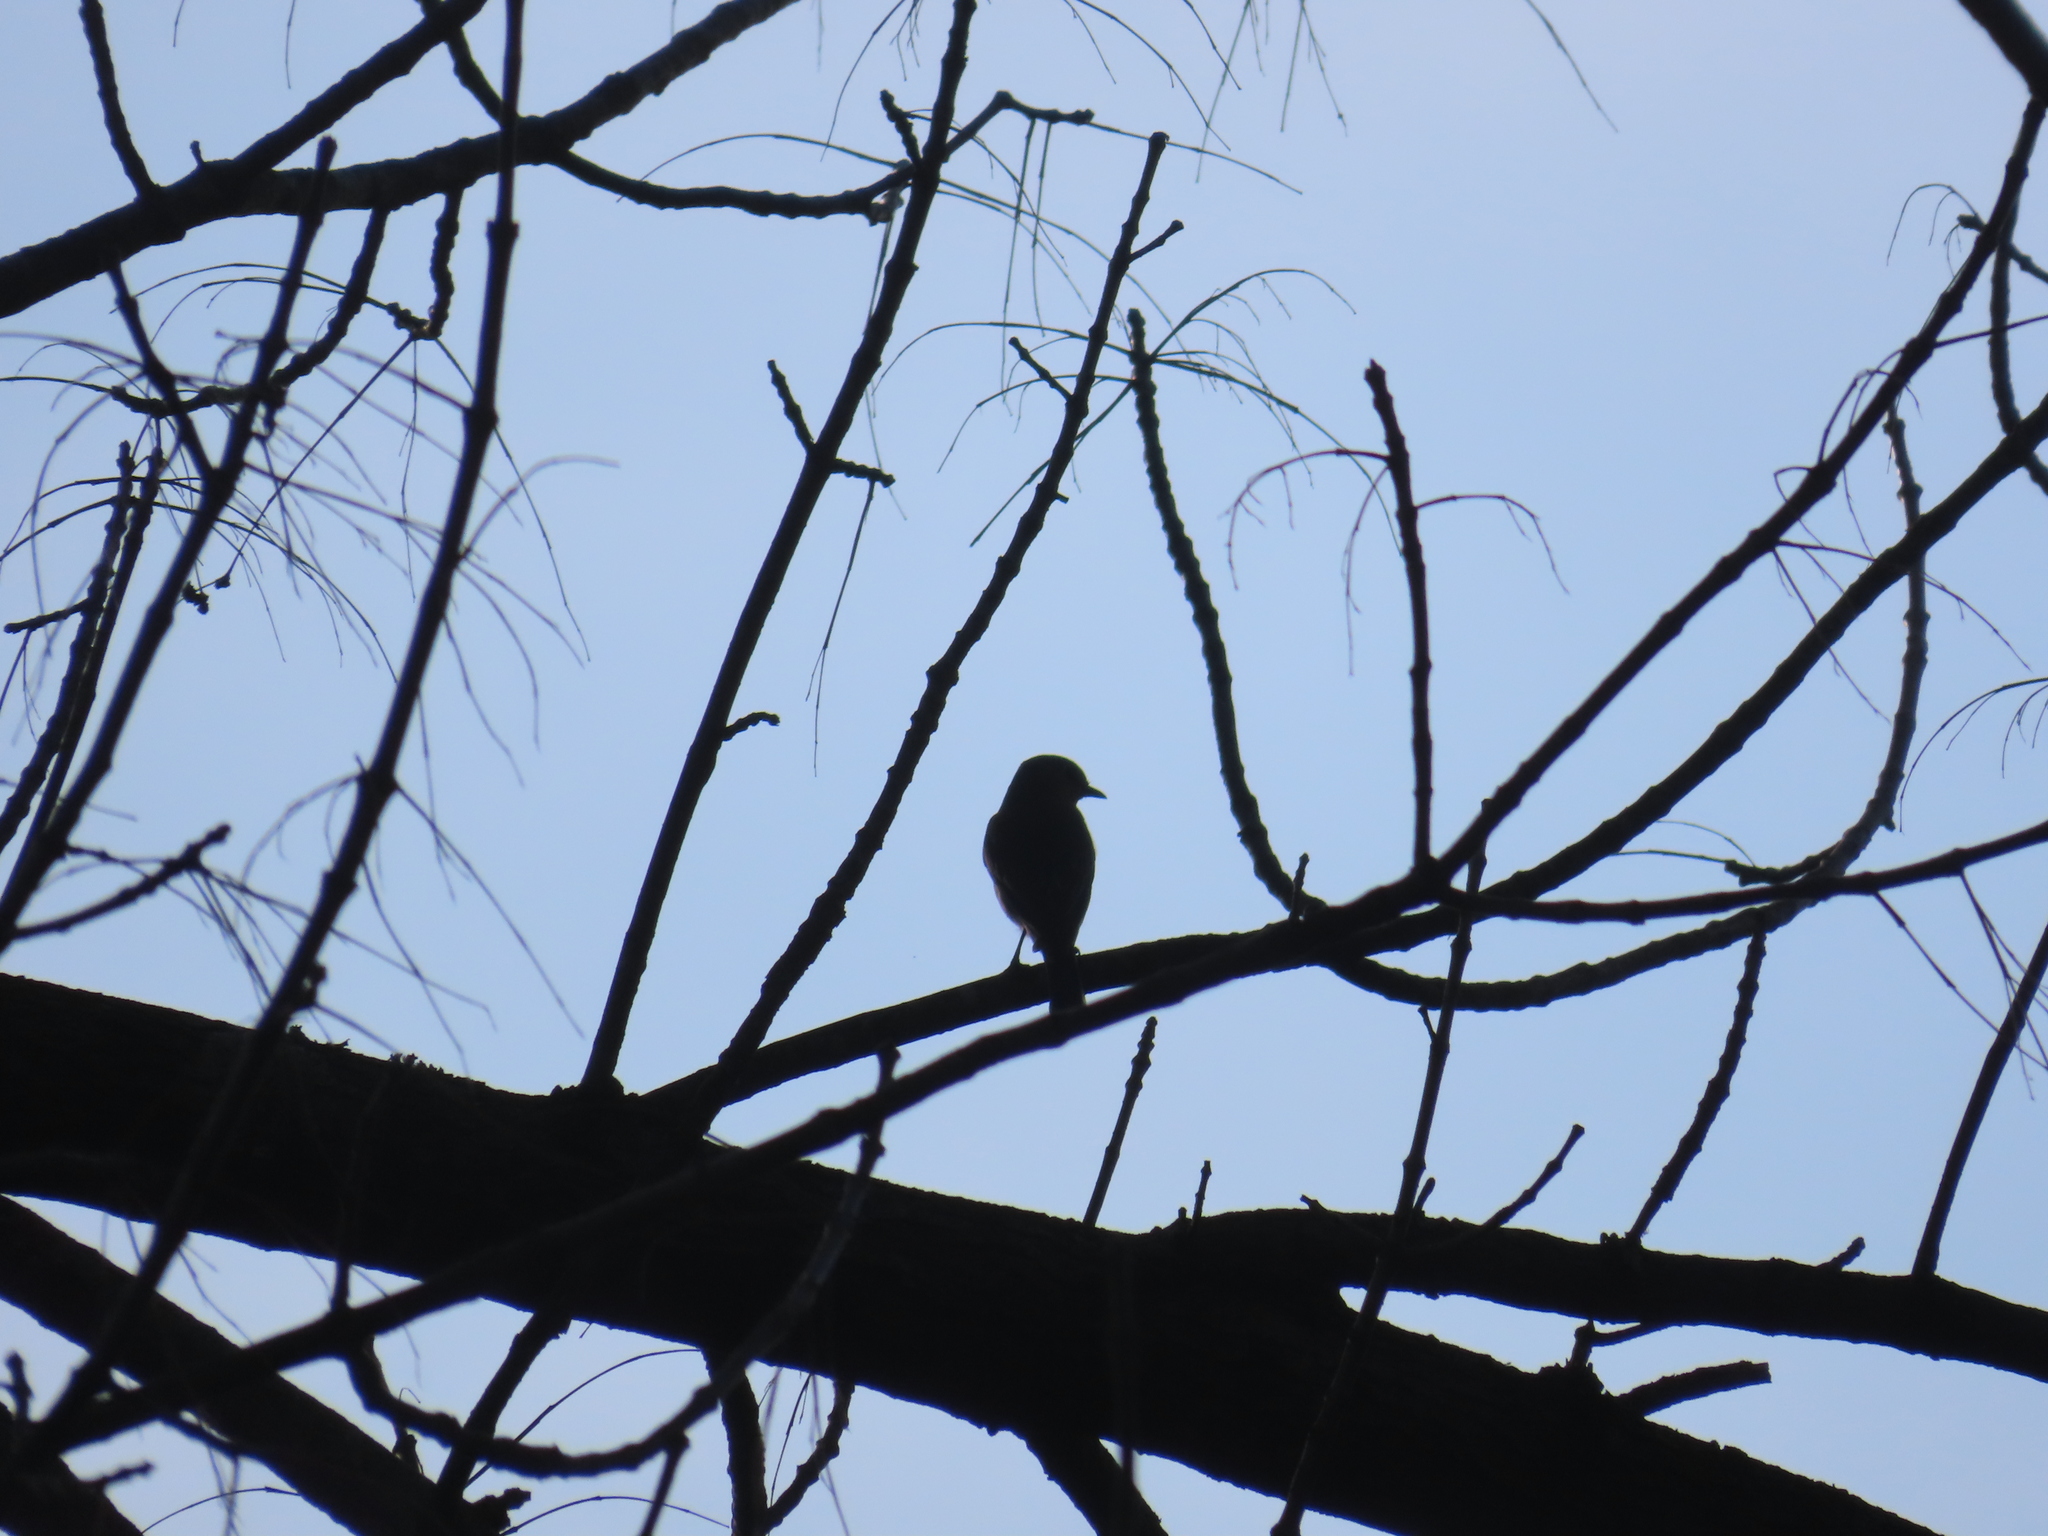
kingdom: Animalia
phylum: Chordata
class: Aves
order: Passeriformes
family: Turdidae
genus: Sialia
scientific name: Sialia sialis
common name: Eastern bluebird
